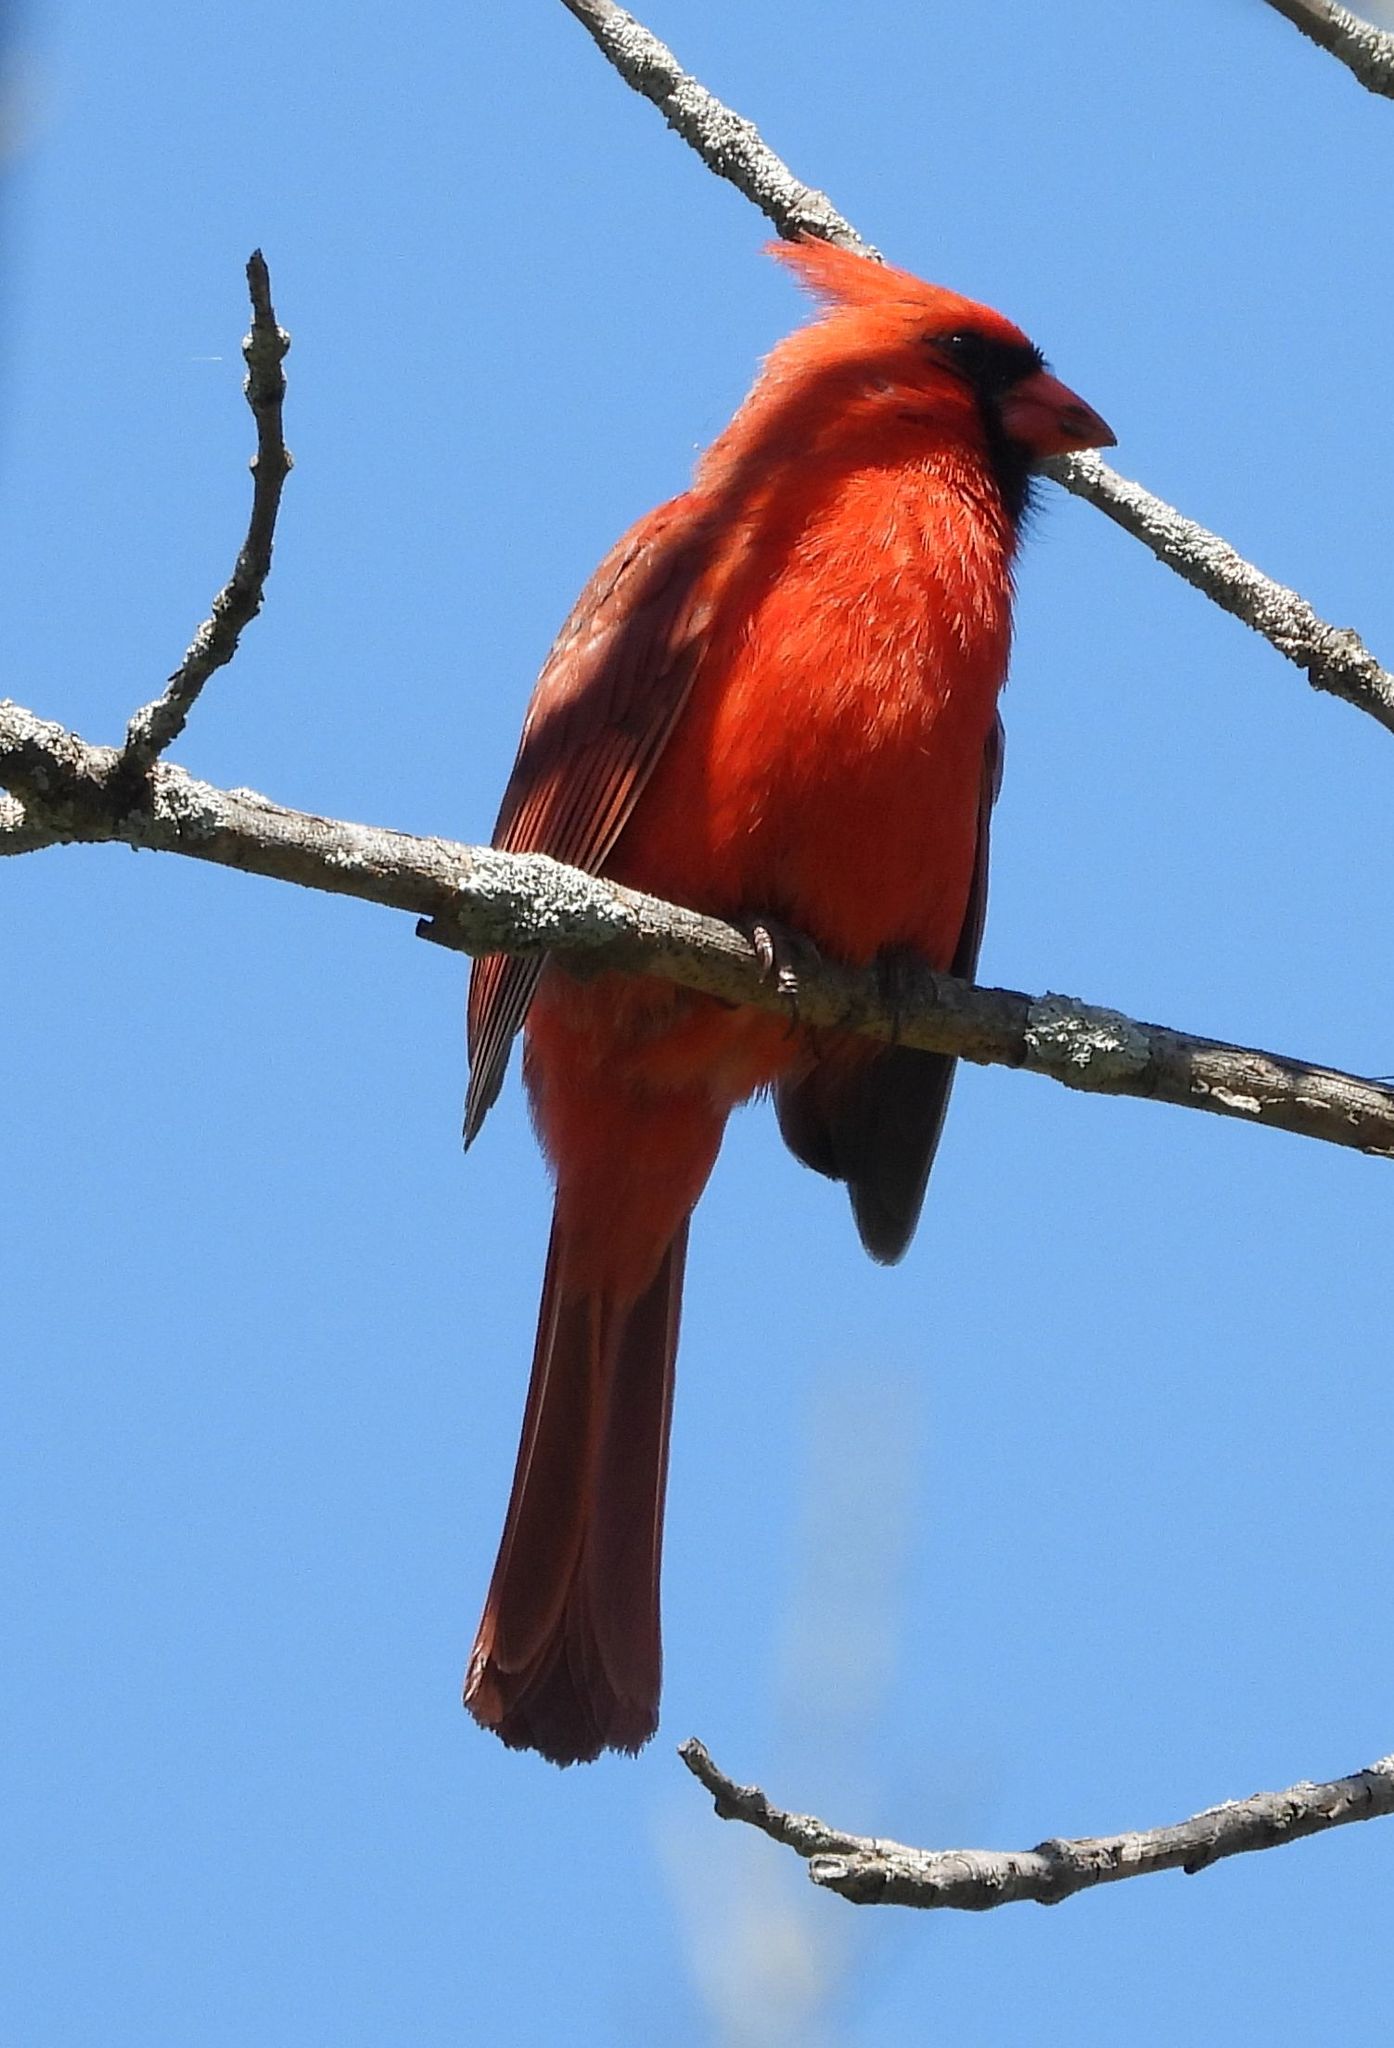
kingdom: Animalia
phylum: Chordata
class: Aves
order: Passeriformes
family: Cardinalidae
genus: Cardinalis
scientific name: Cardinalis cardinalis
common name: Northern cardinal
